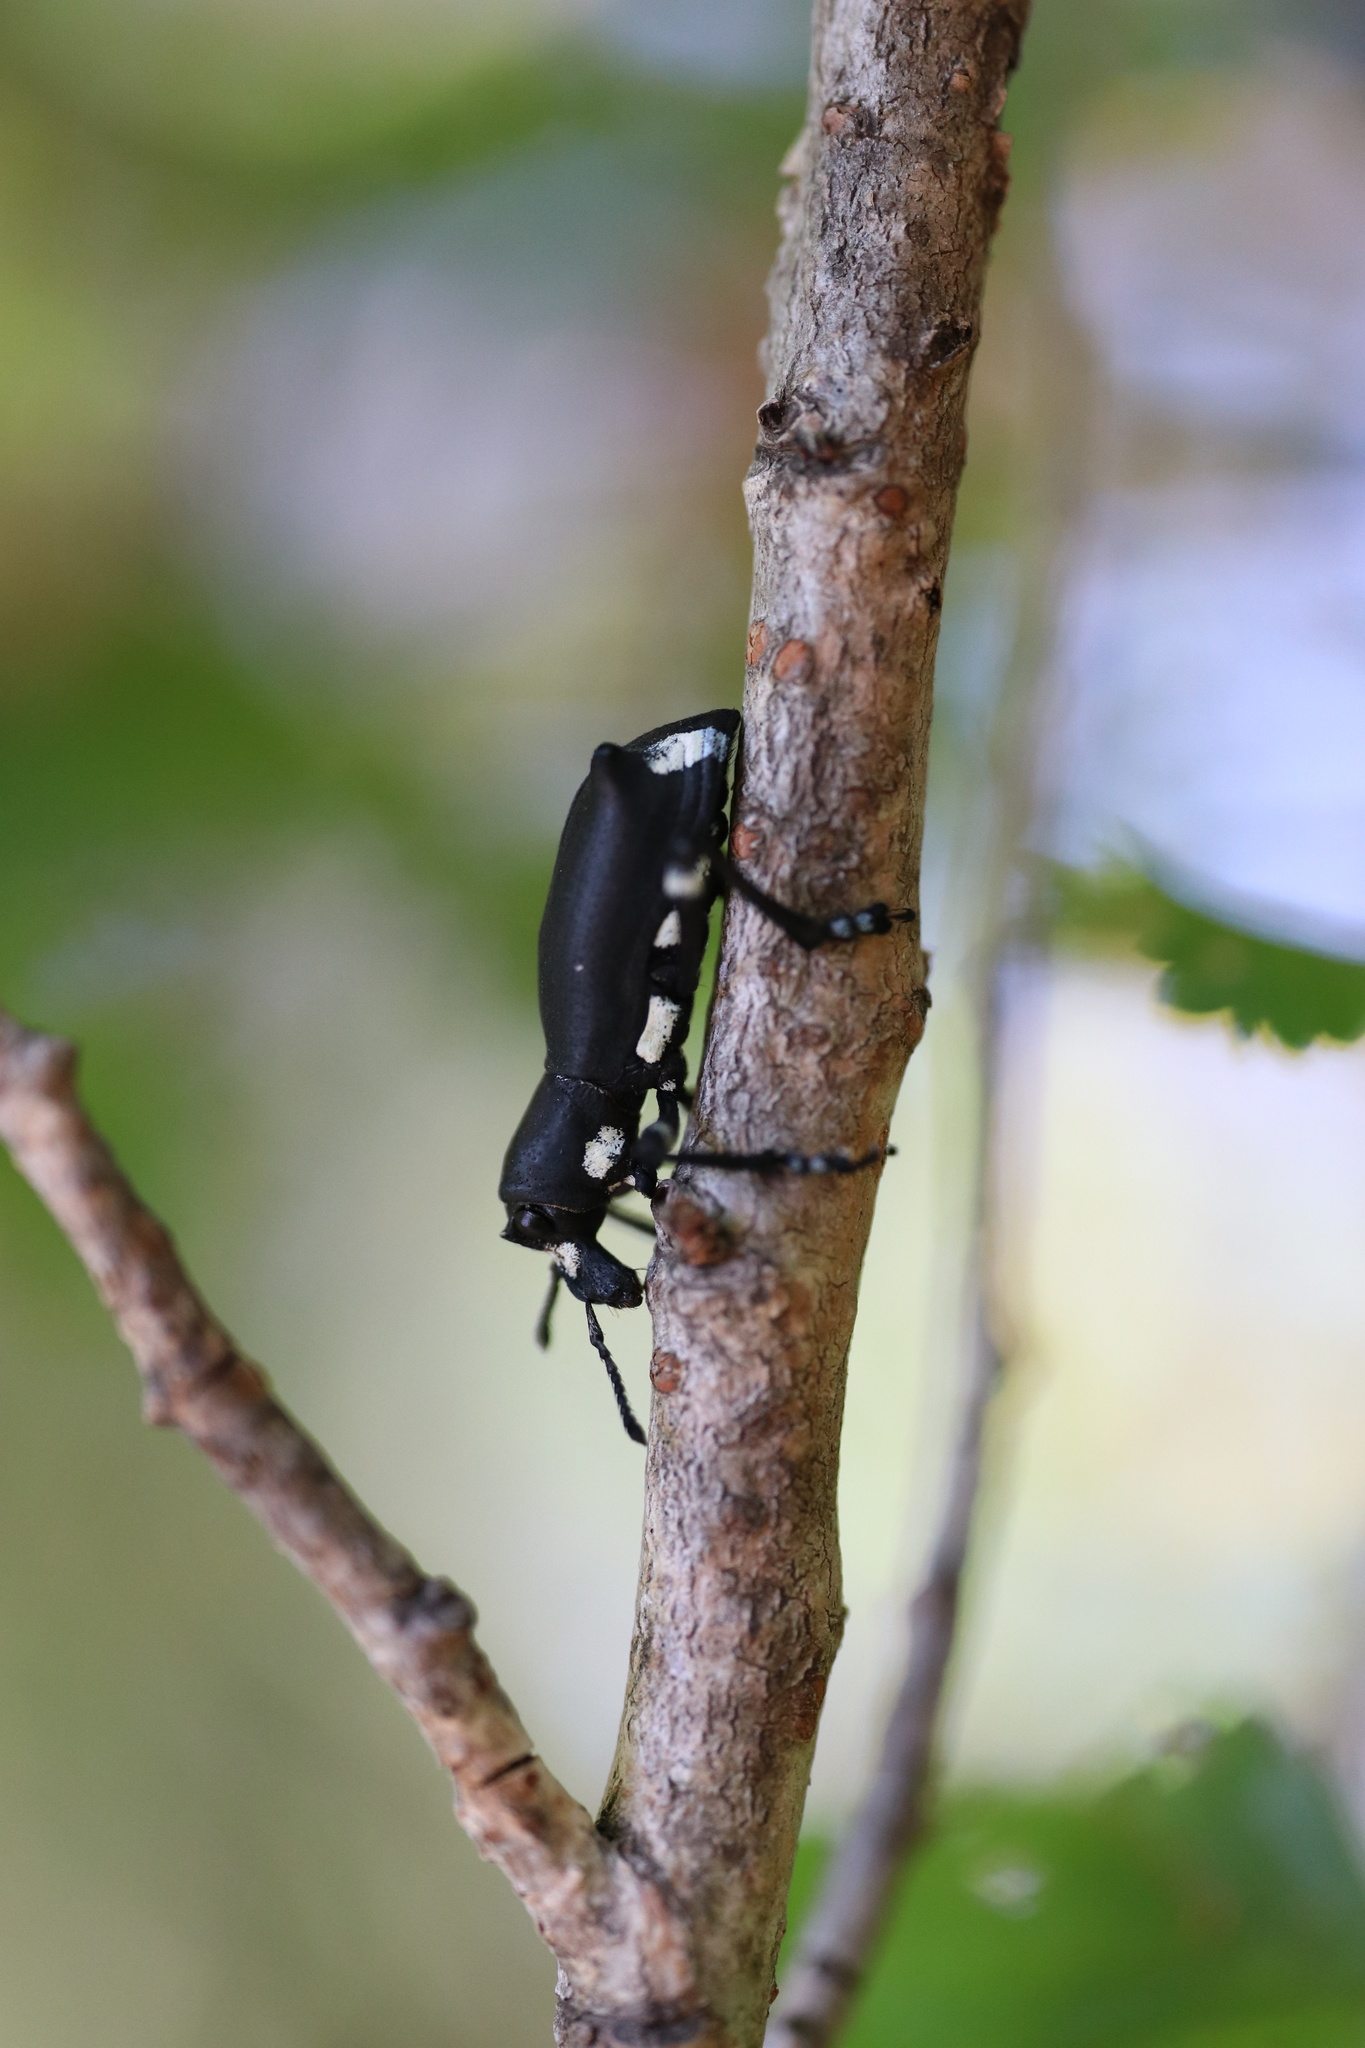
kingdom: Animalia
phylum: Arthropoda
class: Insecta
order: Coleoptera
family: Curculionidae
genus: Aegorhinus
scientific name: Aegorhinus
